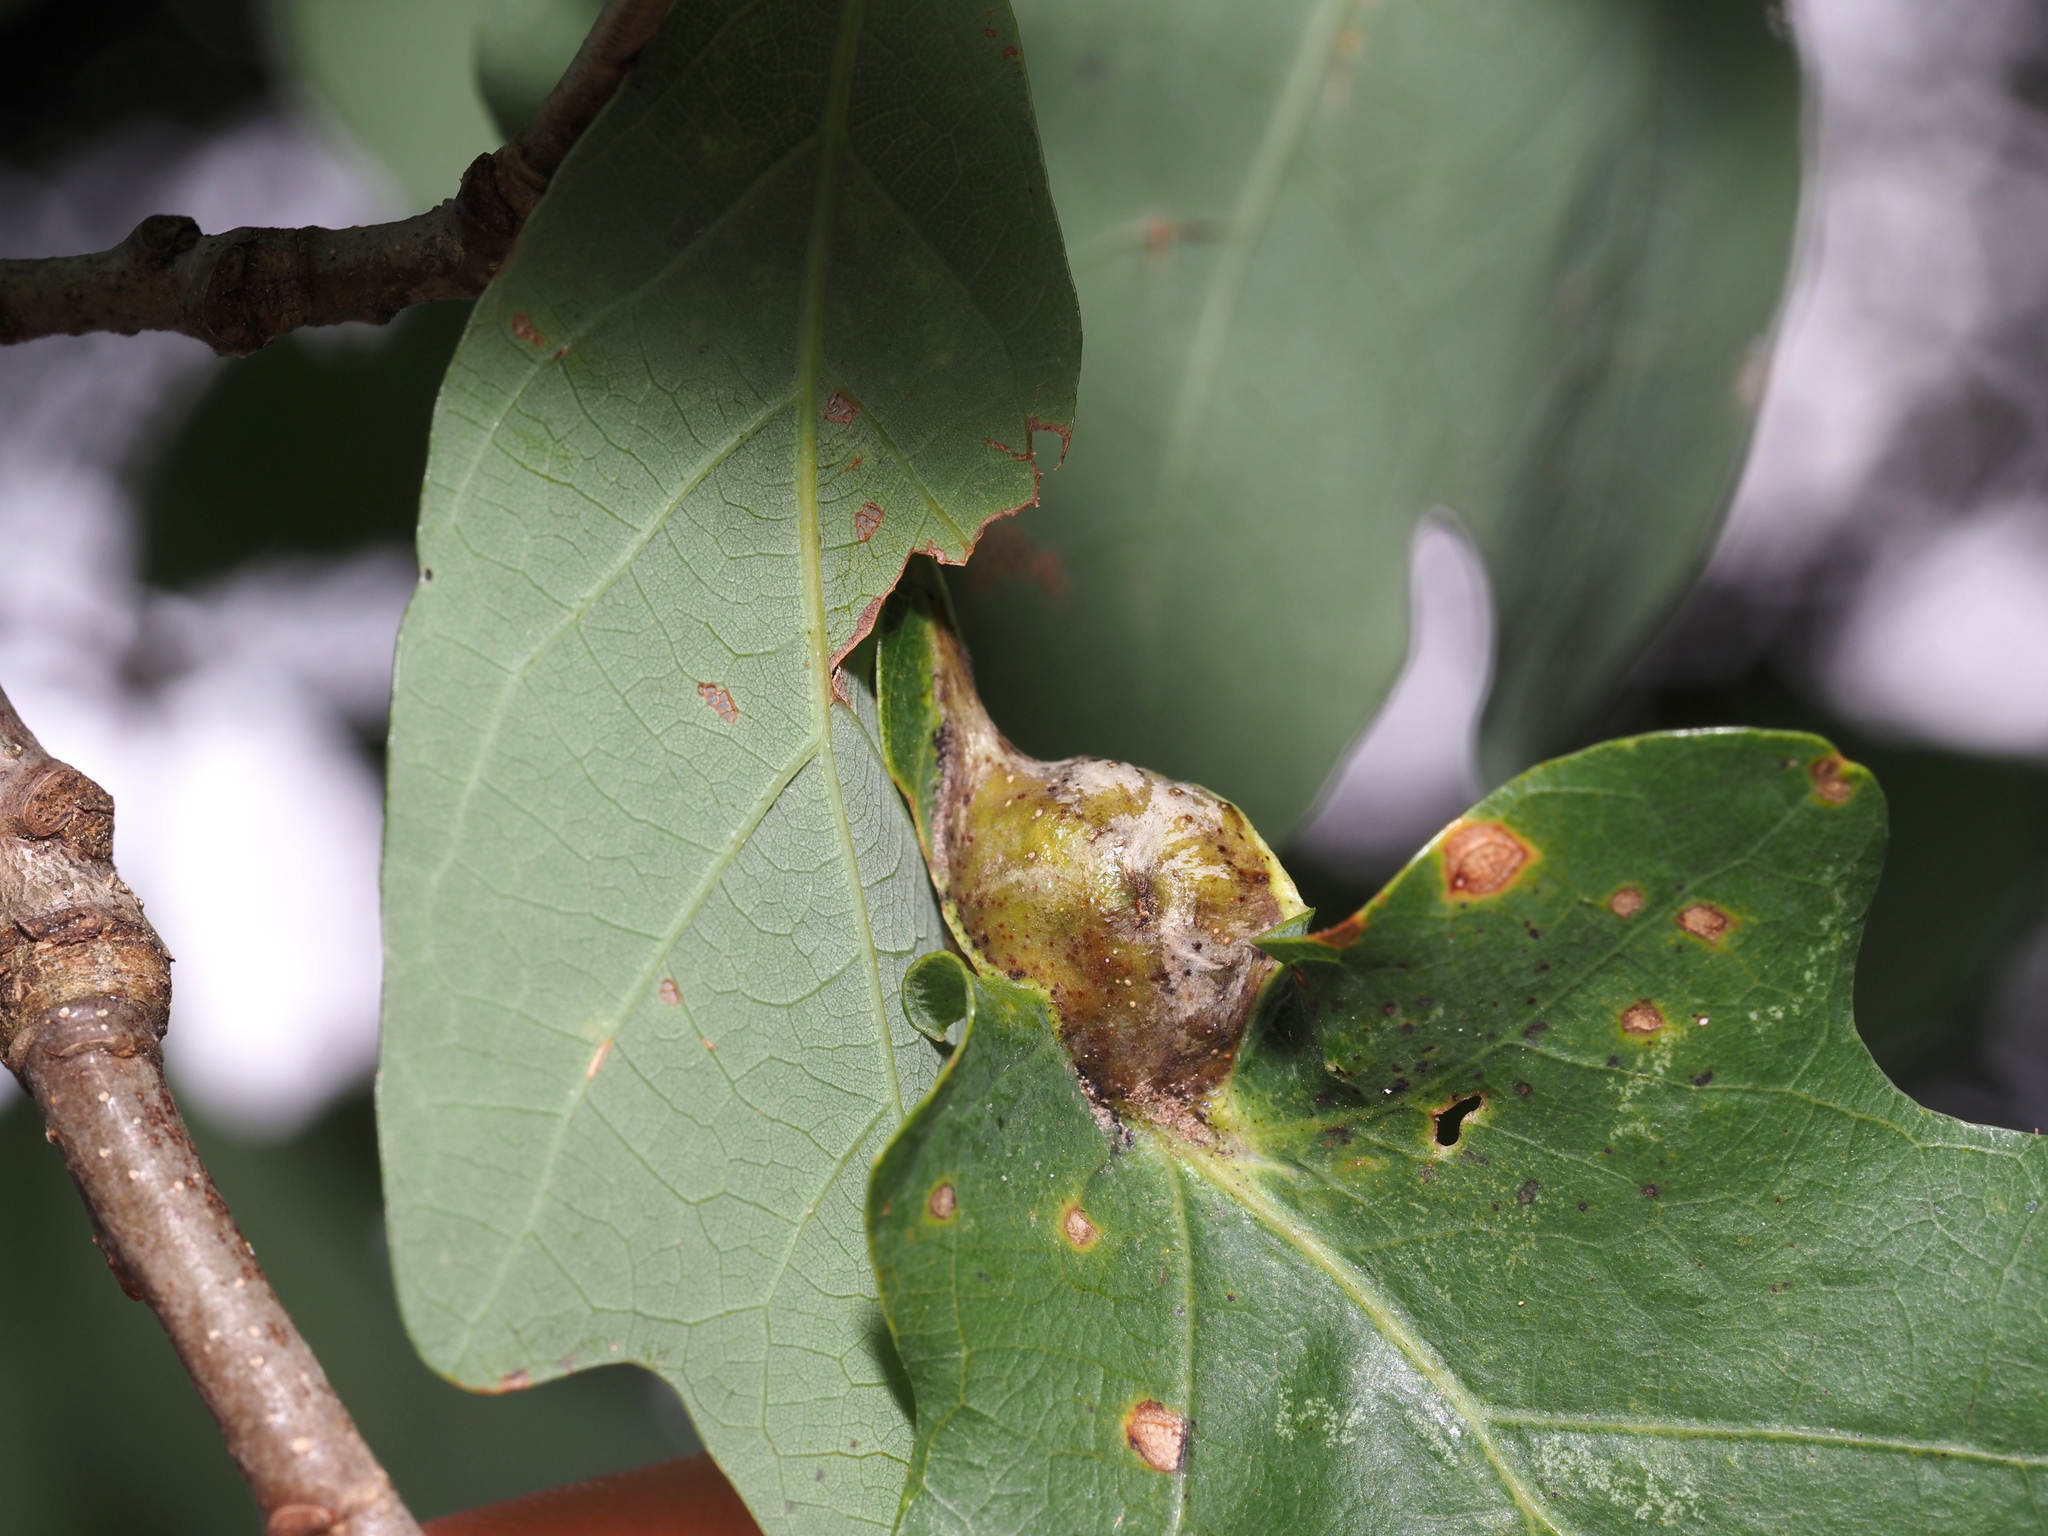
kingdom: Animalia
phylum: Arthropoda
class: Insecta
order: Hymenoptera
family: Cynipidae
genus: Andricus
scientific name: Andricus
